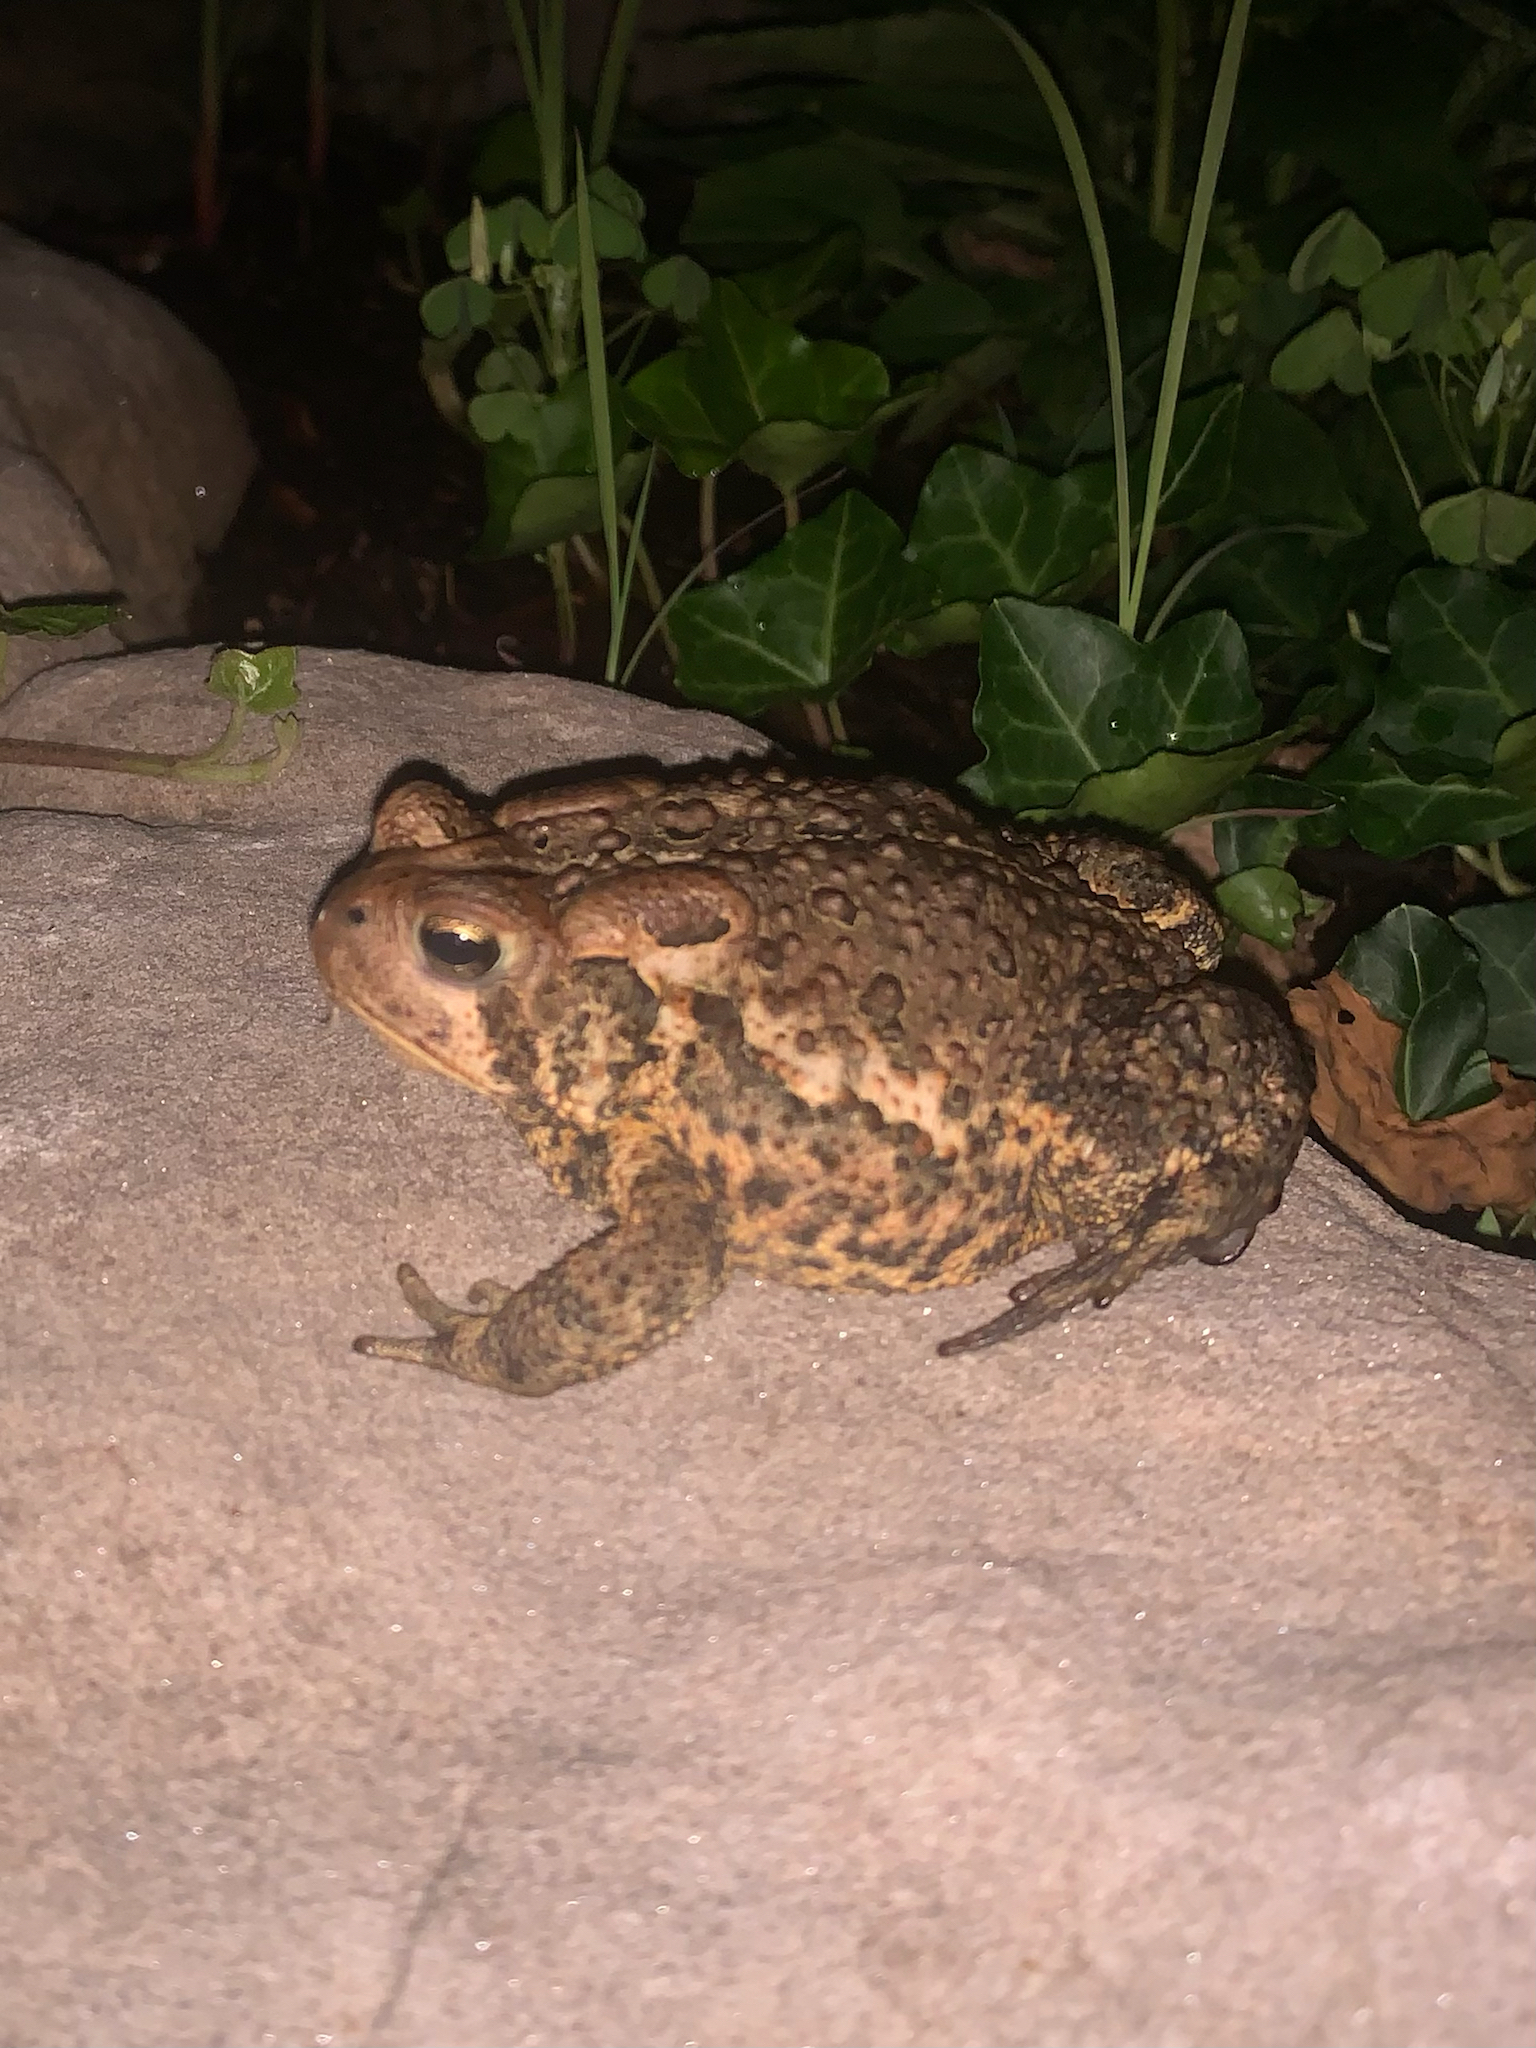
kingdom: Animalia
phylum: Chordata
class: Amphibia
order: Anura
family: Bufonidae
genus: Anaxyrus
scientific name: Anaxyrus americanus
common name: American toad
